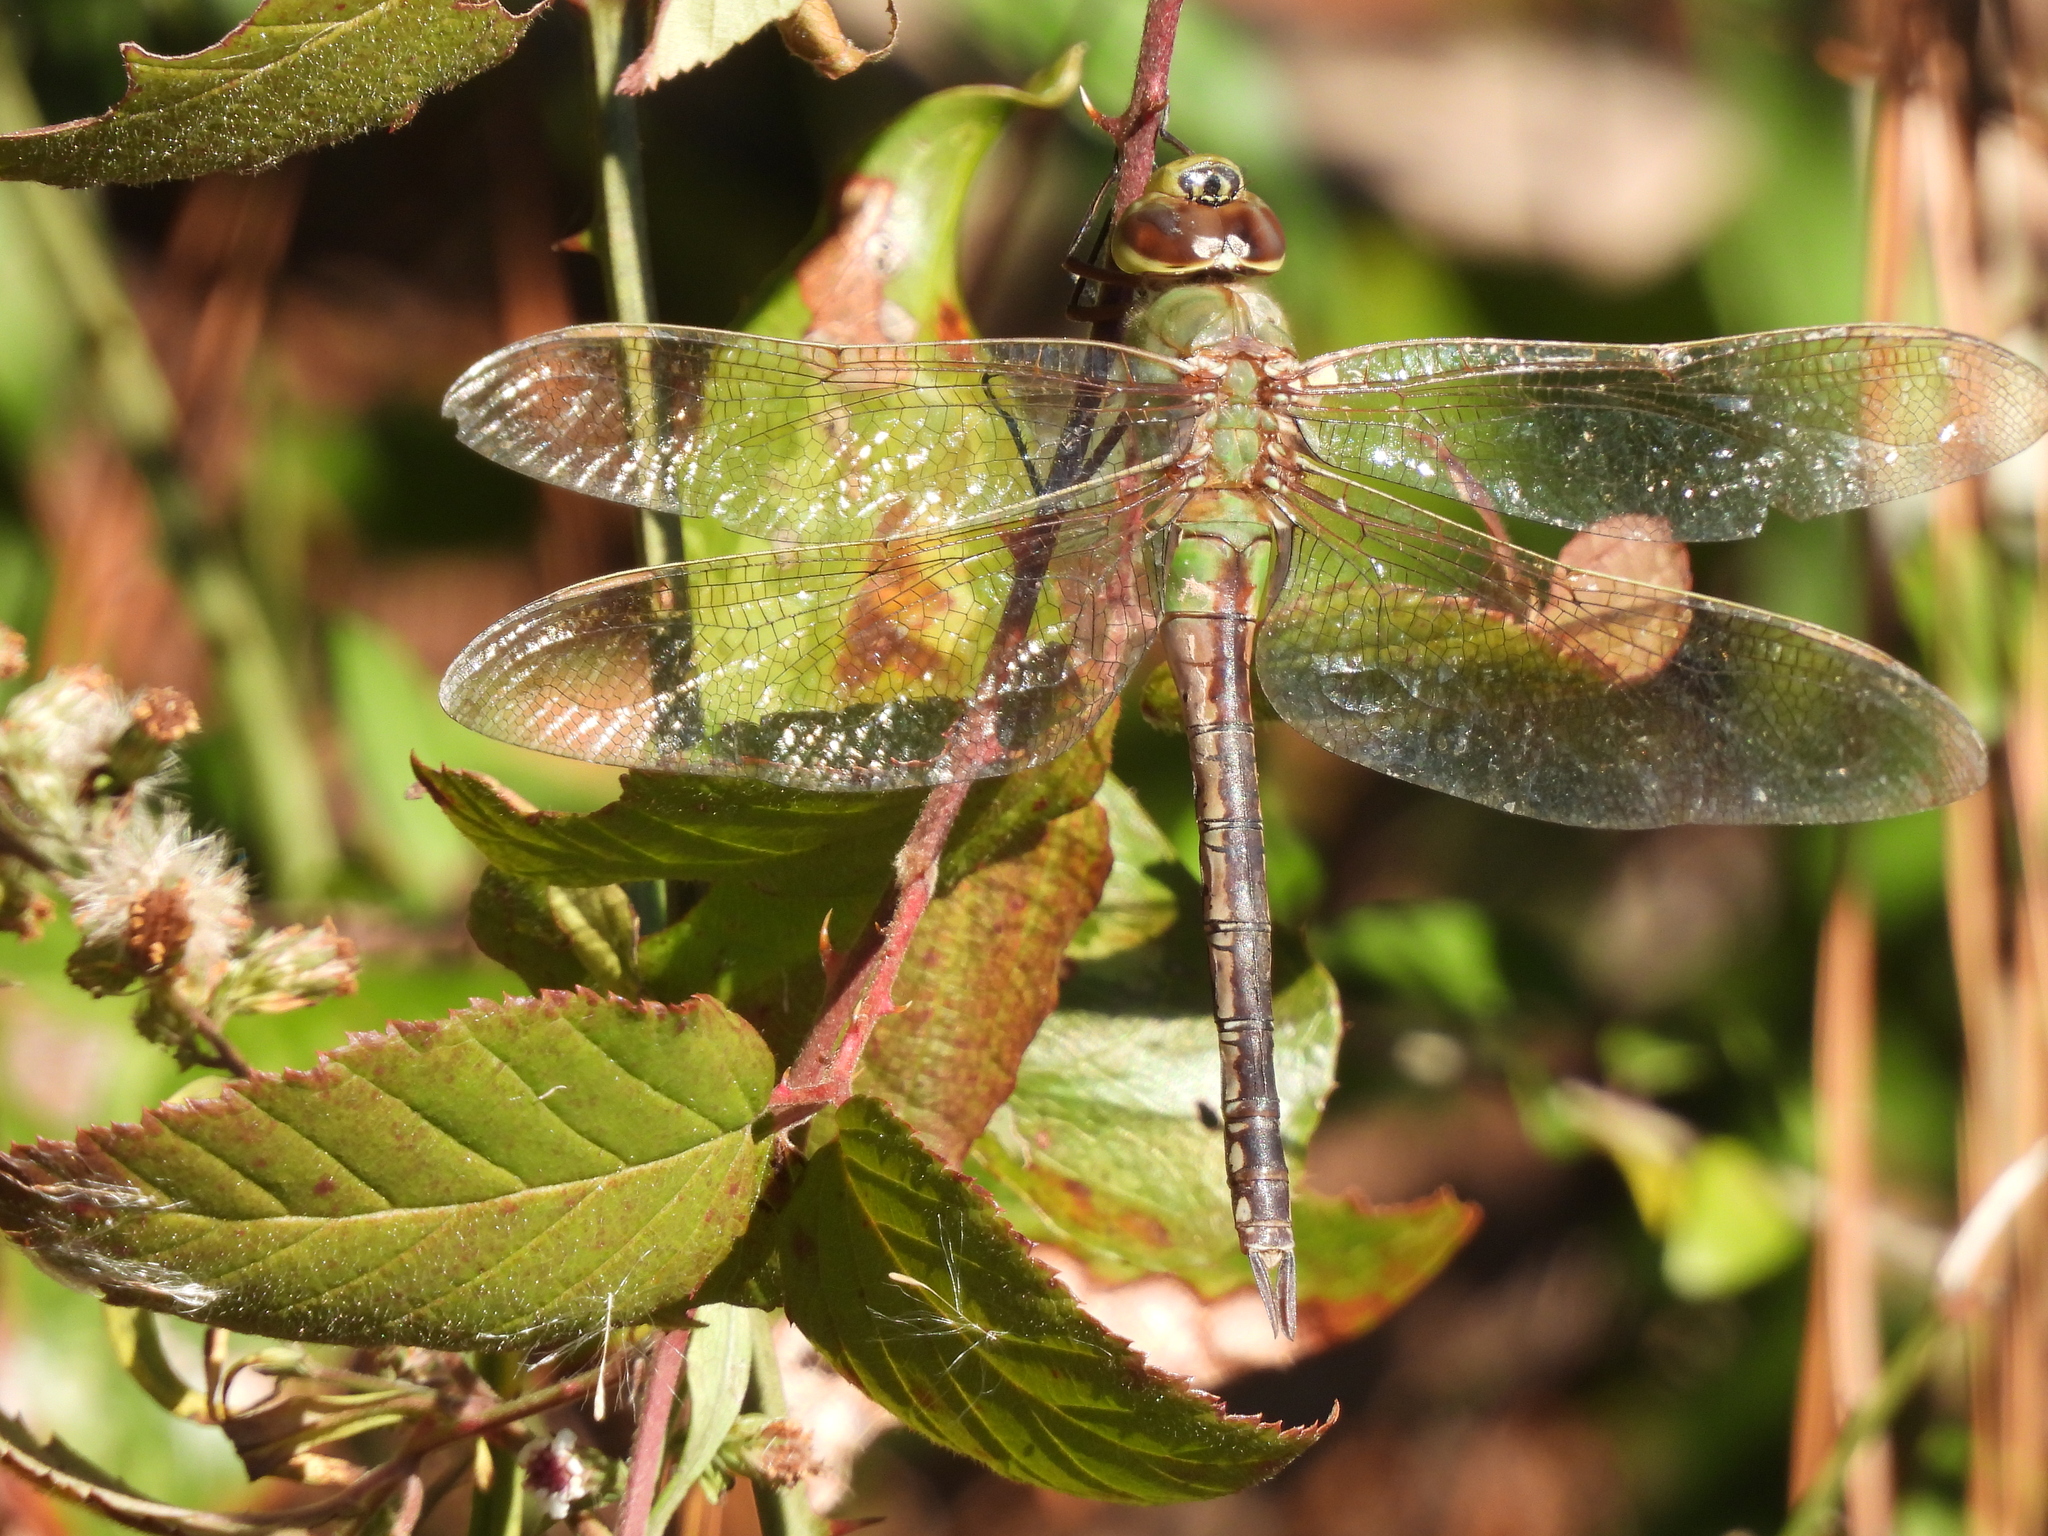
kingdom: Animalia
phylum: Arthropoda
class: Insecta
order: Odonata
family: Aeshnidae
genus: Anax
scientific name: Anax junius
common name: Common green darner
